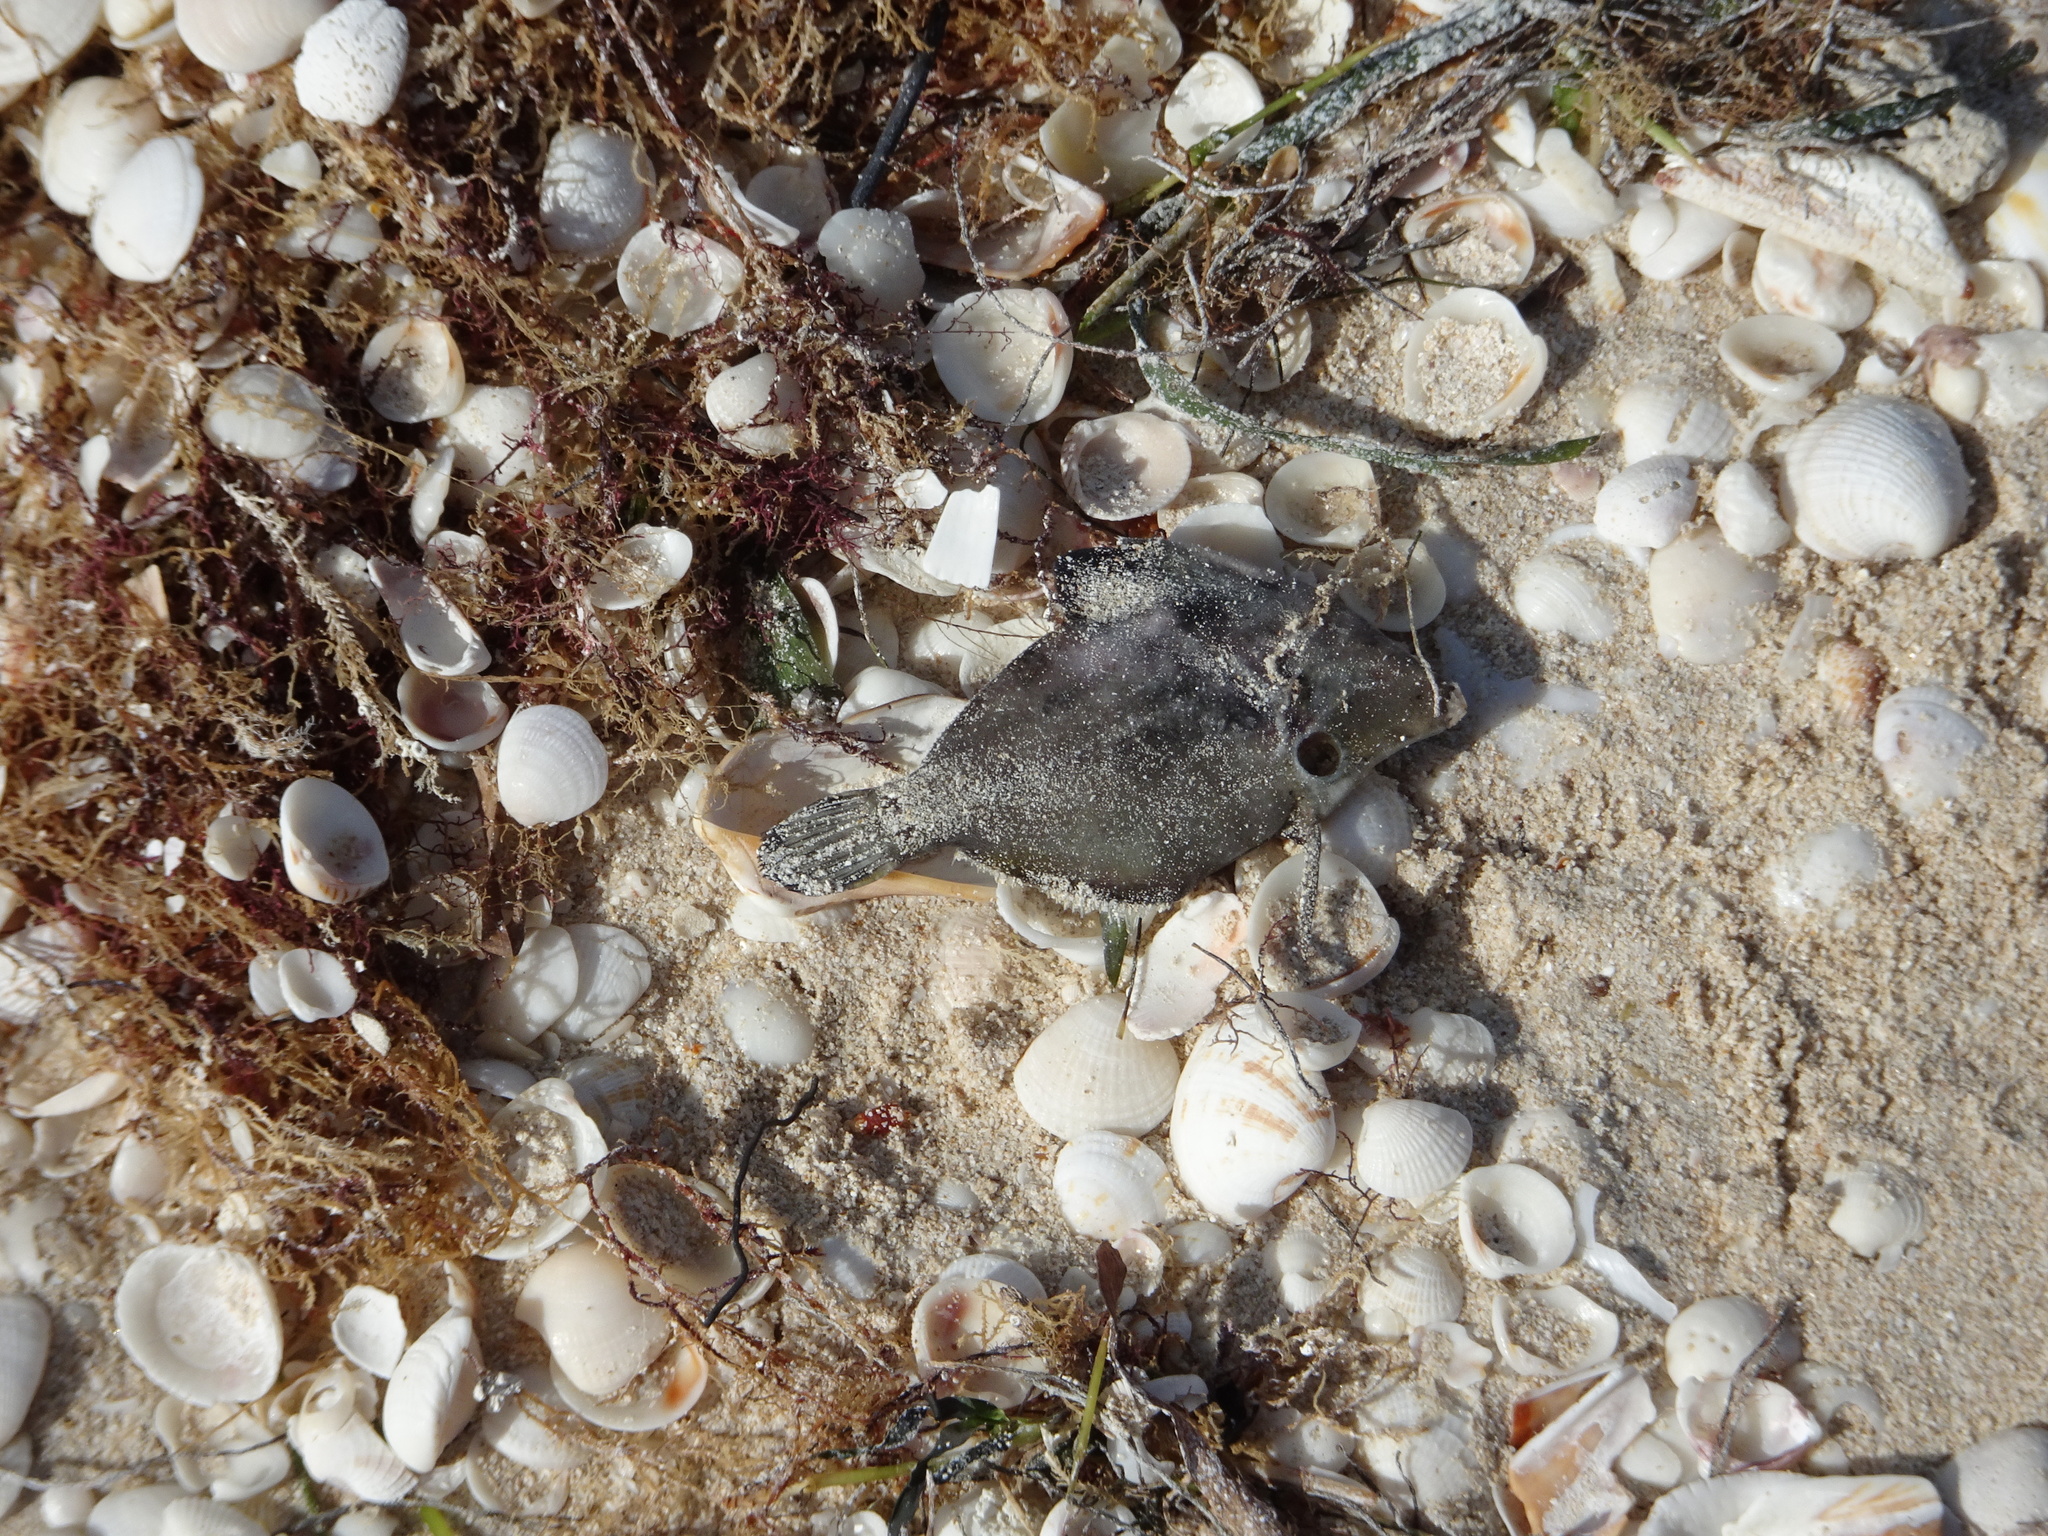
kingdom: Animalia
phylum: Chordata
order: Tetraodontiformes
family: Monacanthidae
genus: Monacanthus
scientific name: Monacanthus
